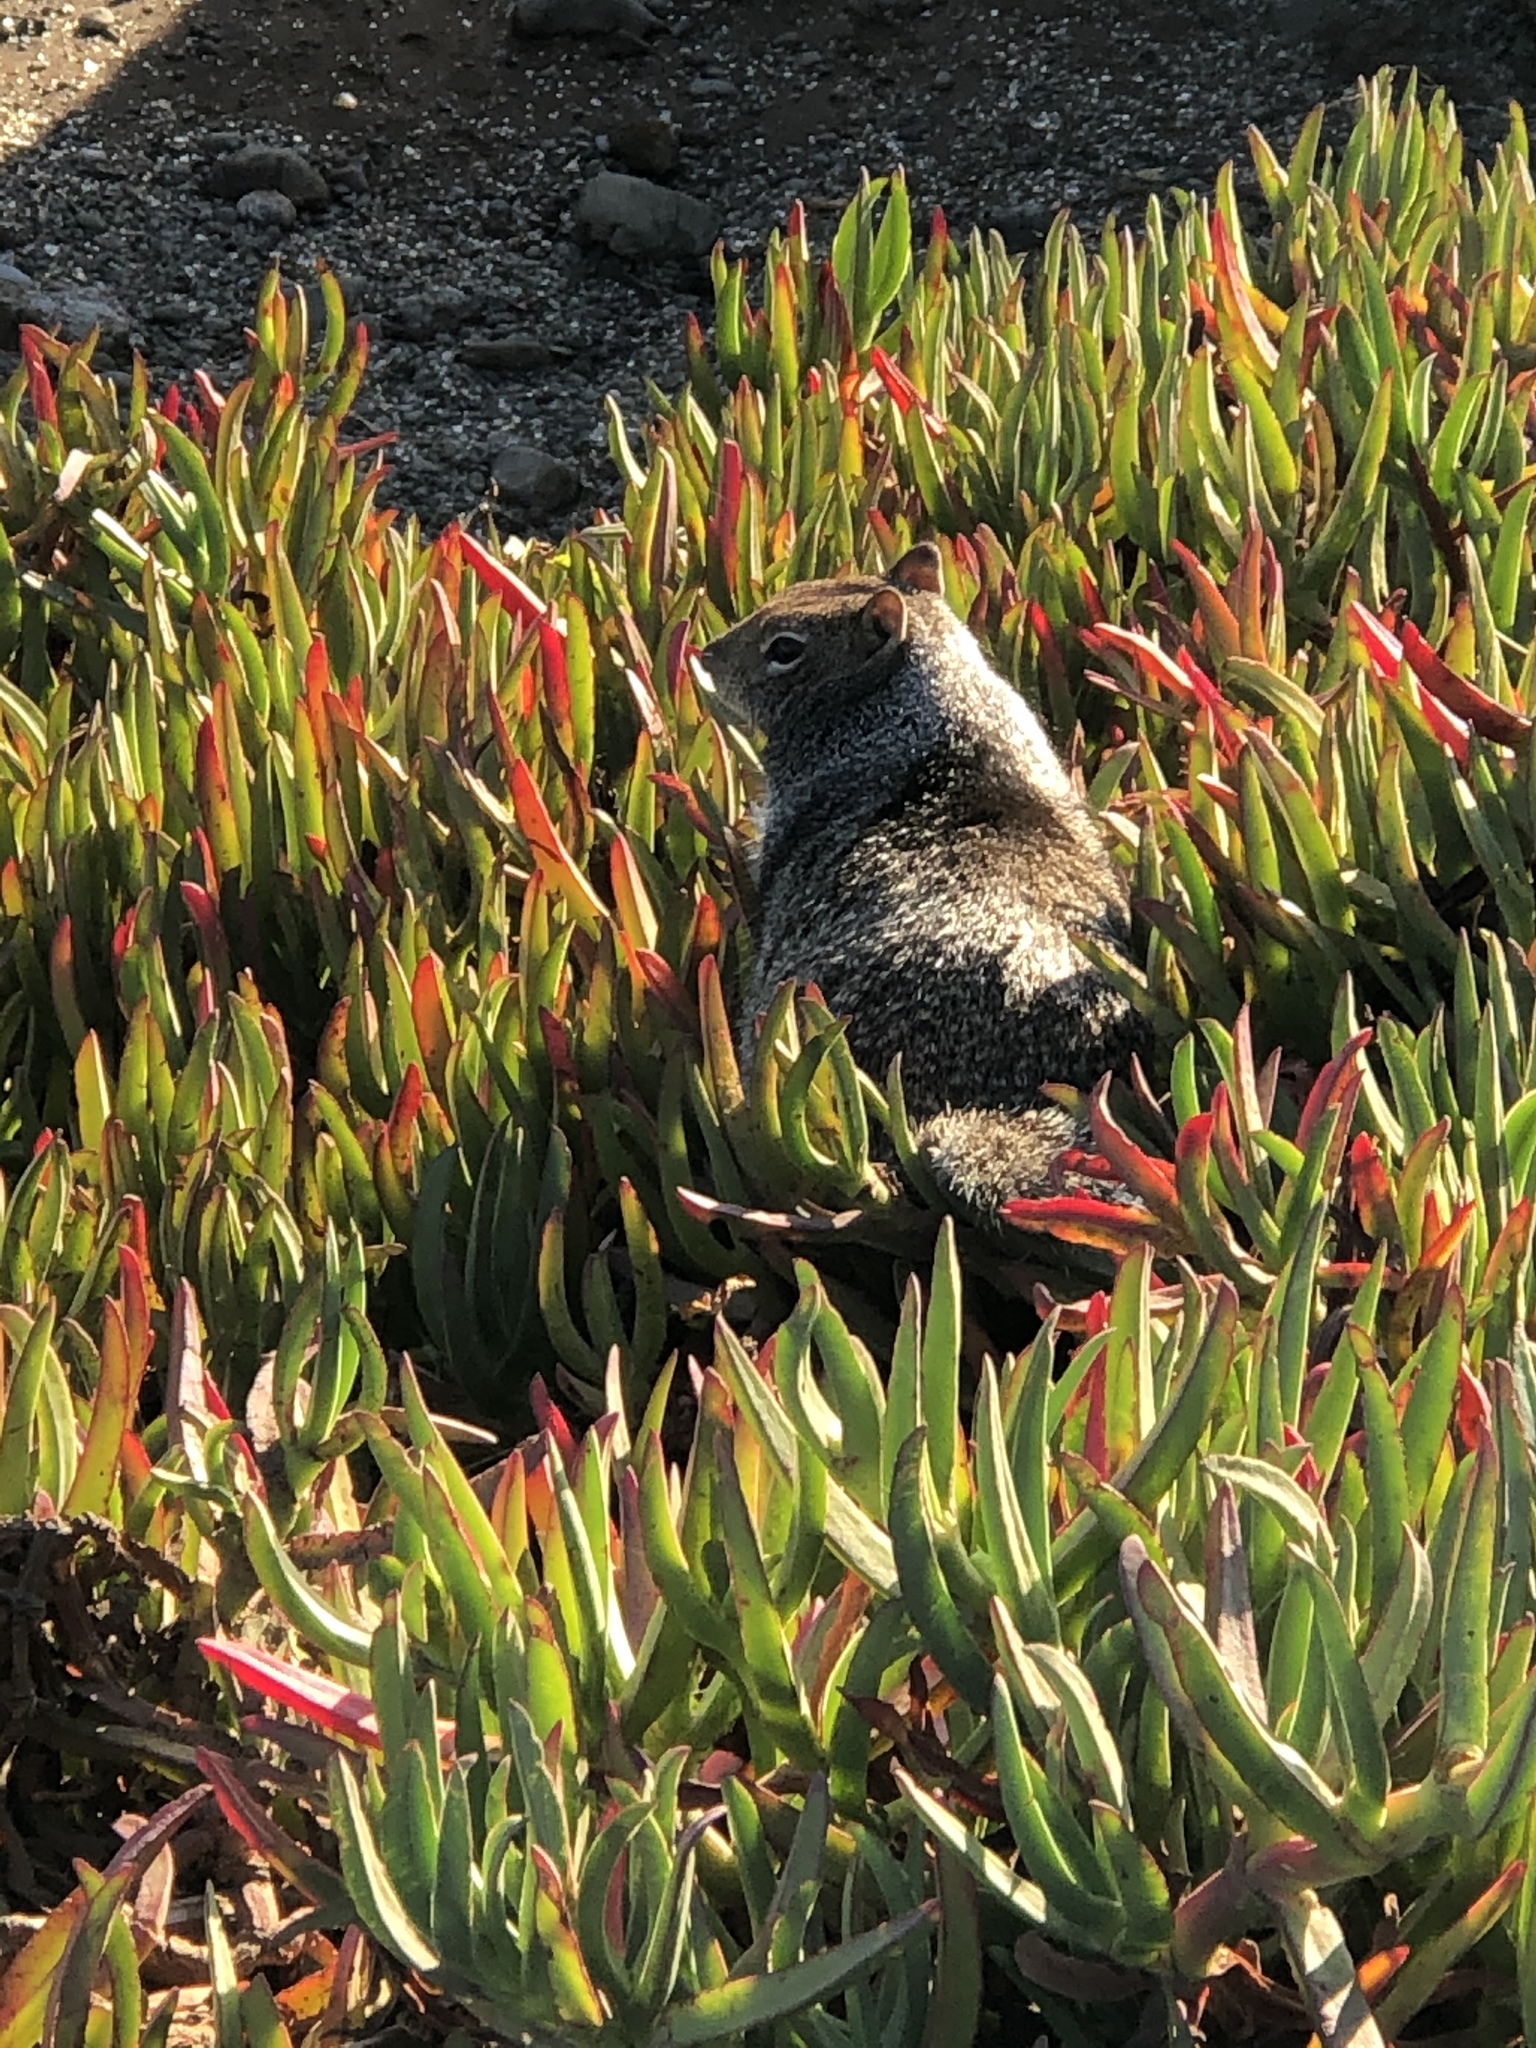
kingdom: Animalia
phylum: Chordata
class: Mammalia
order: Rodentia
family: Sciuridae
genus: Otospermophilus
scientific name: Otospermophilus beecheyi
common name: California ground squirrel
